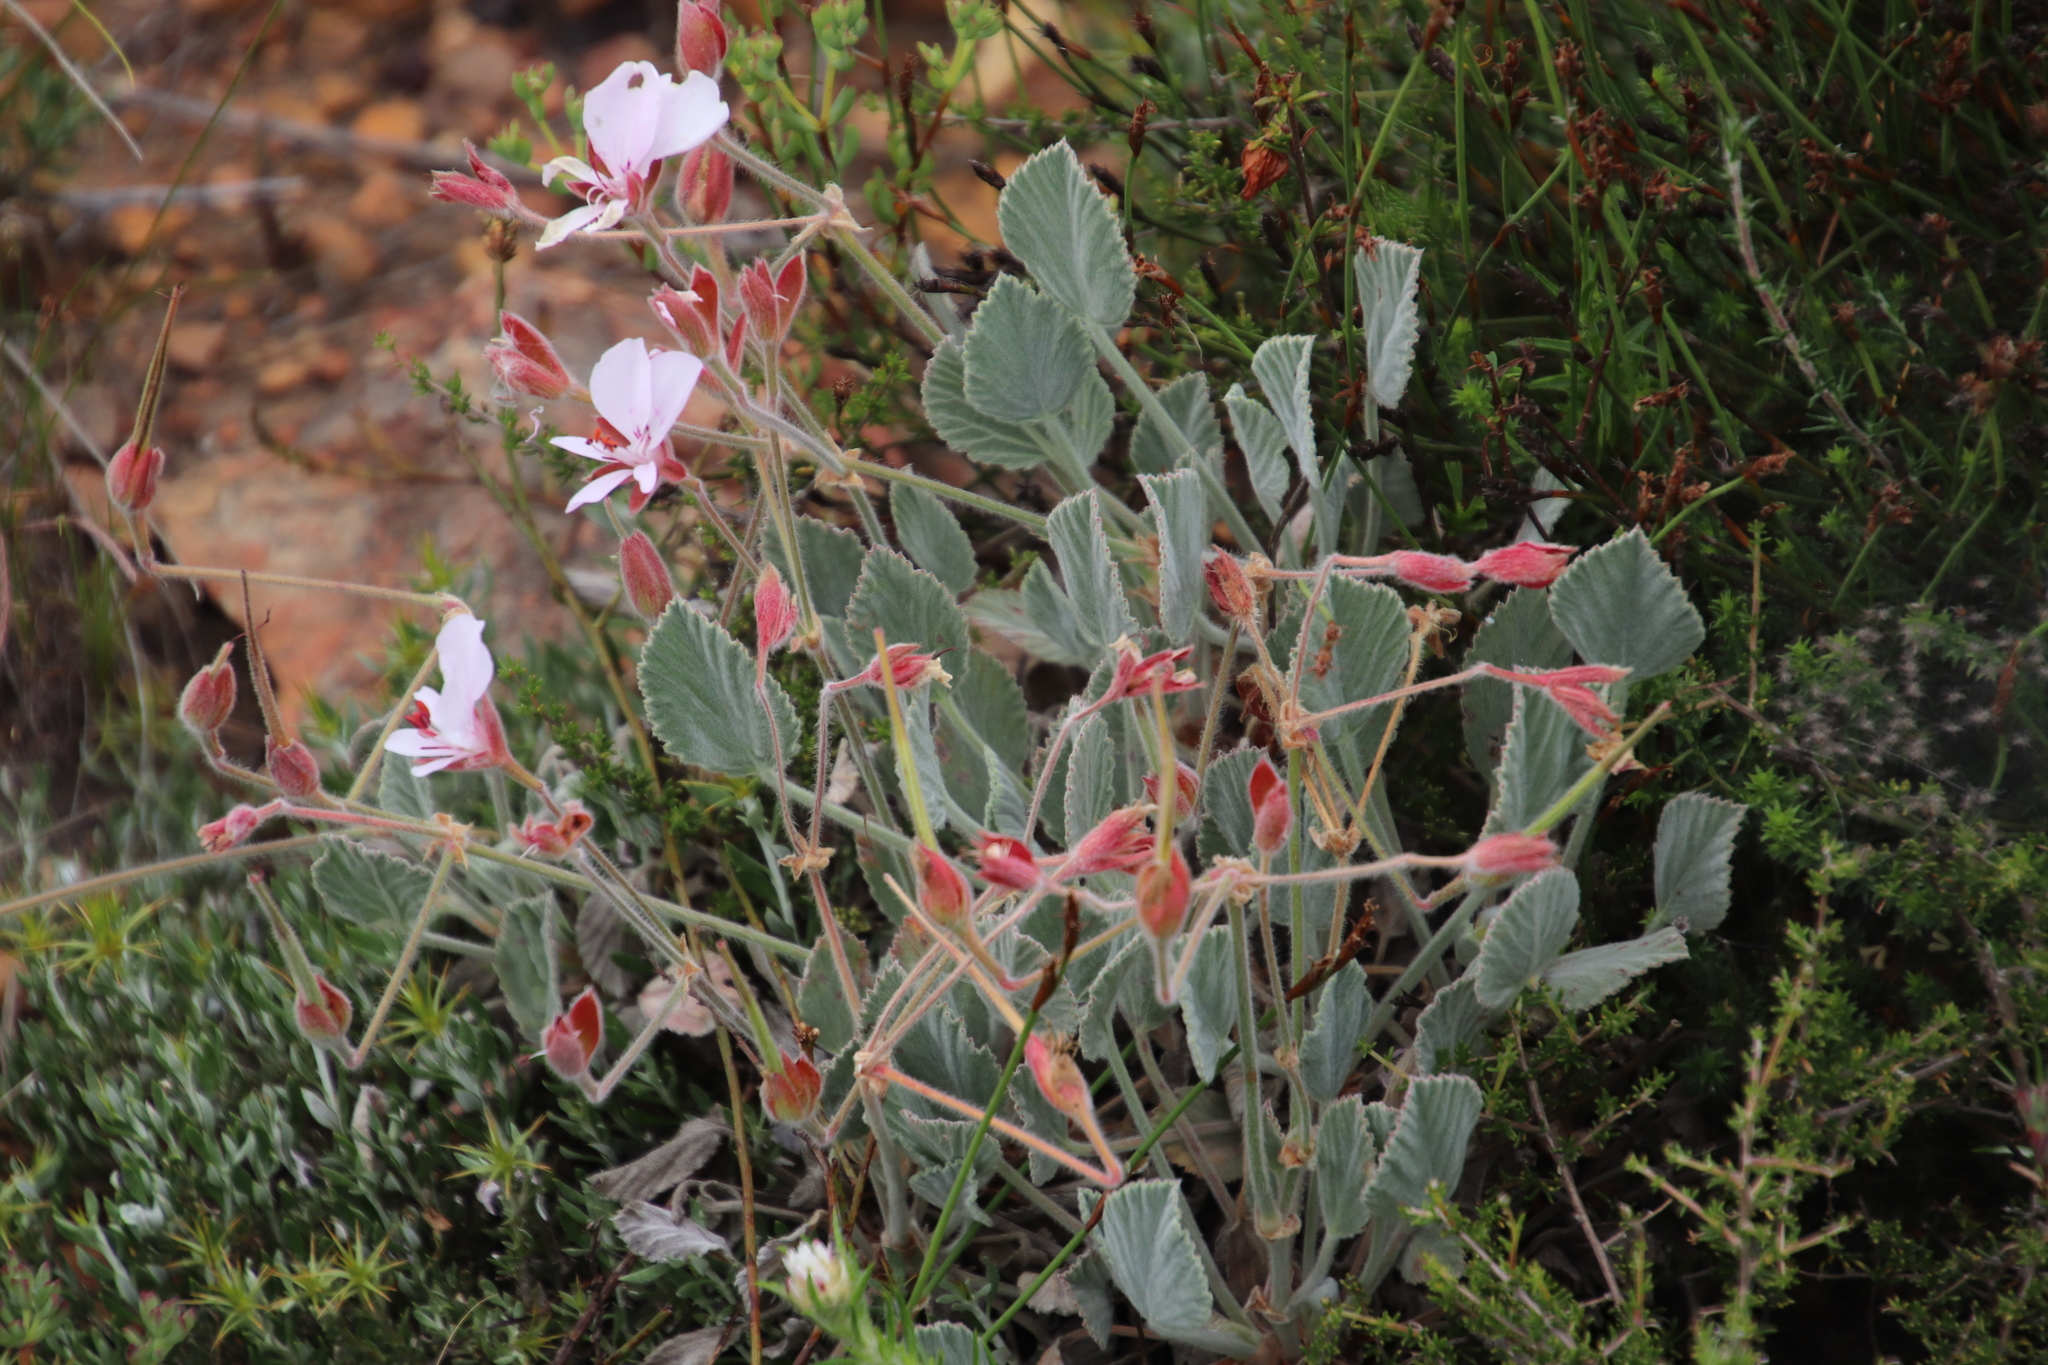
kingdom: Plantae
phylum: Tracheophyta
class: Magnoliopsida
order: Geraniales
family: Geraniaceae
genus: Pelargonium
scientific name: Pelargonium ovale
